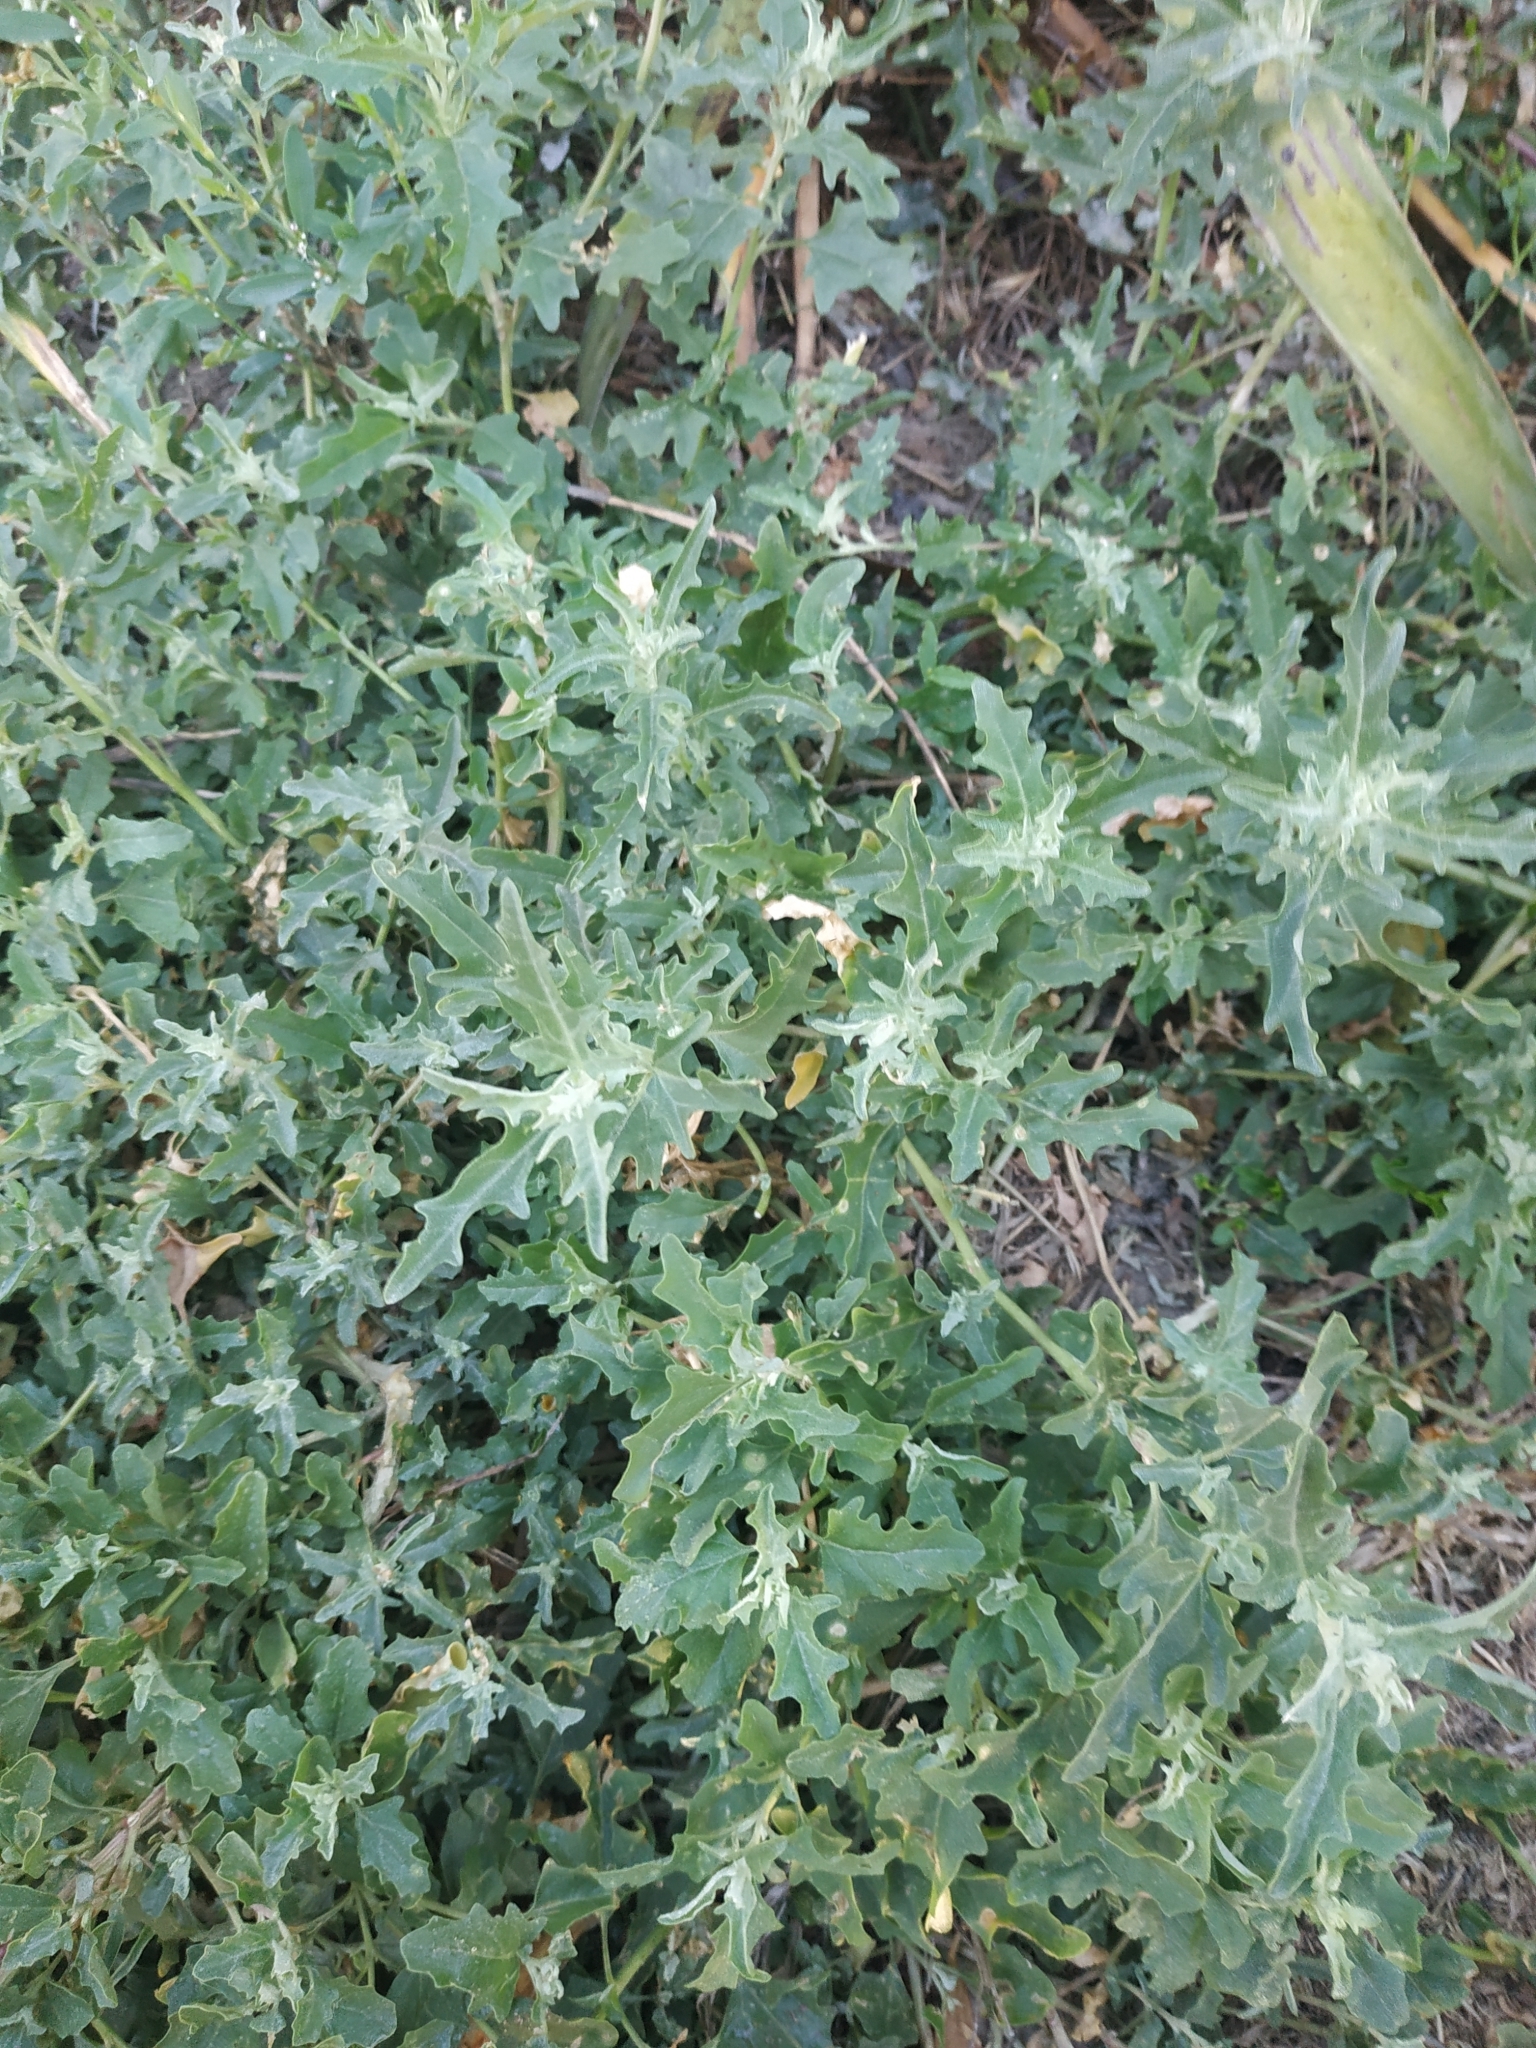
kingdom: Plantae
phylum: Tracheophyta
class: Magnoliopsida
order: Caryophyllales
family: Amaranthaceae
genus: Atriplex
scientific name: Atriplex tatarica
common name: Tatarian orache
